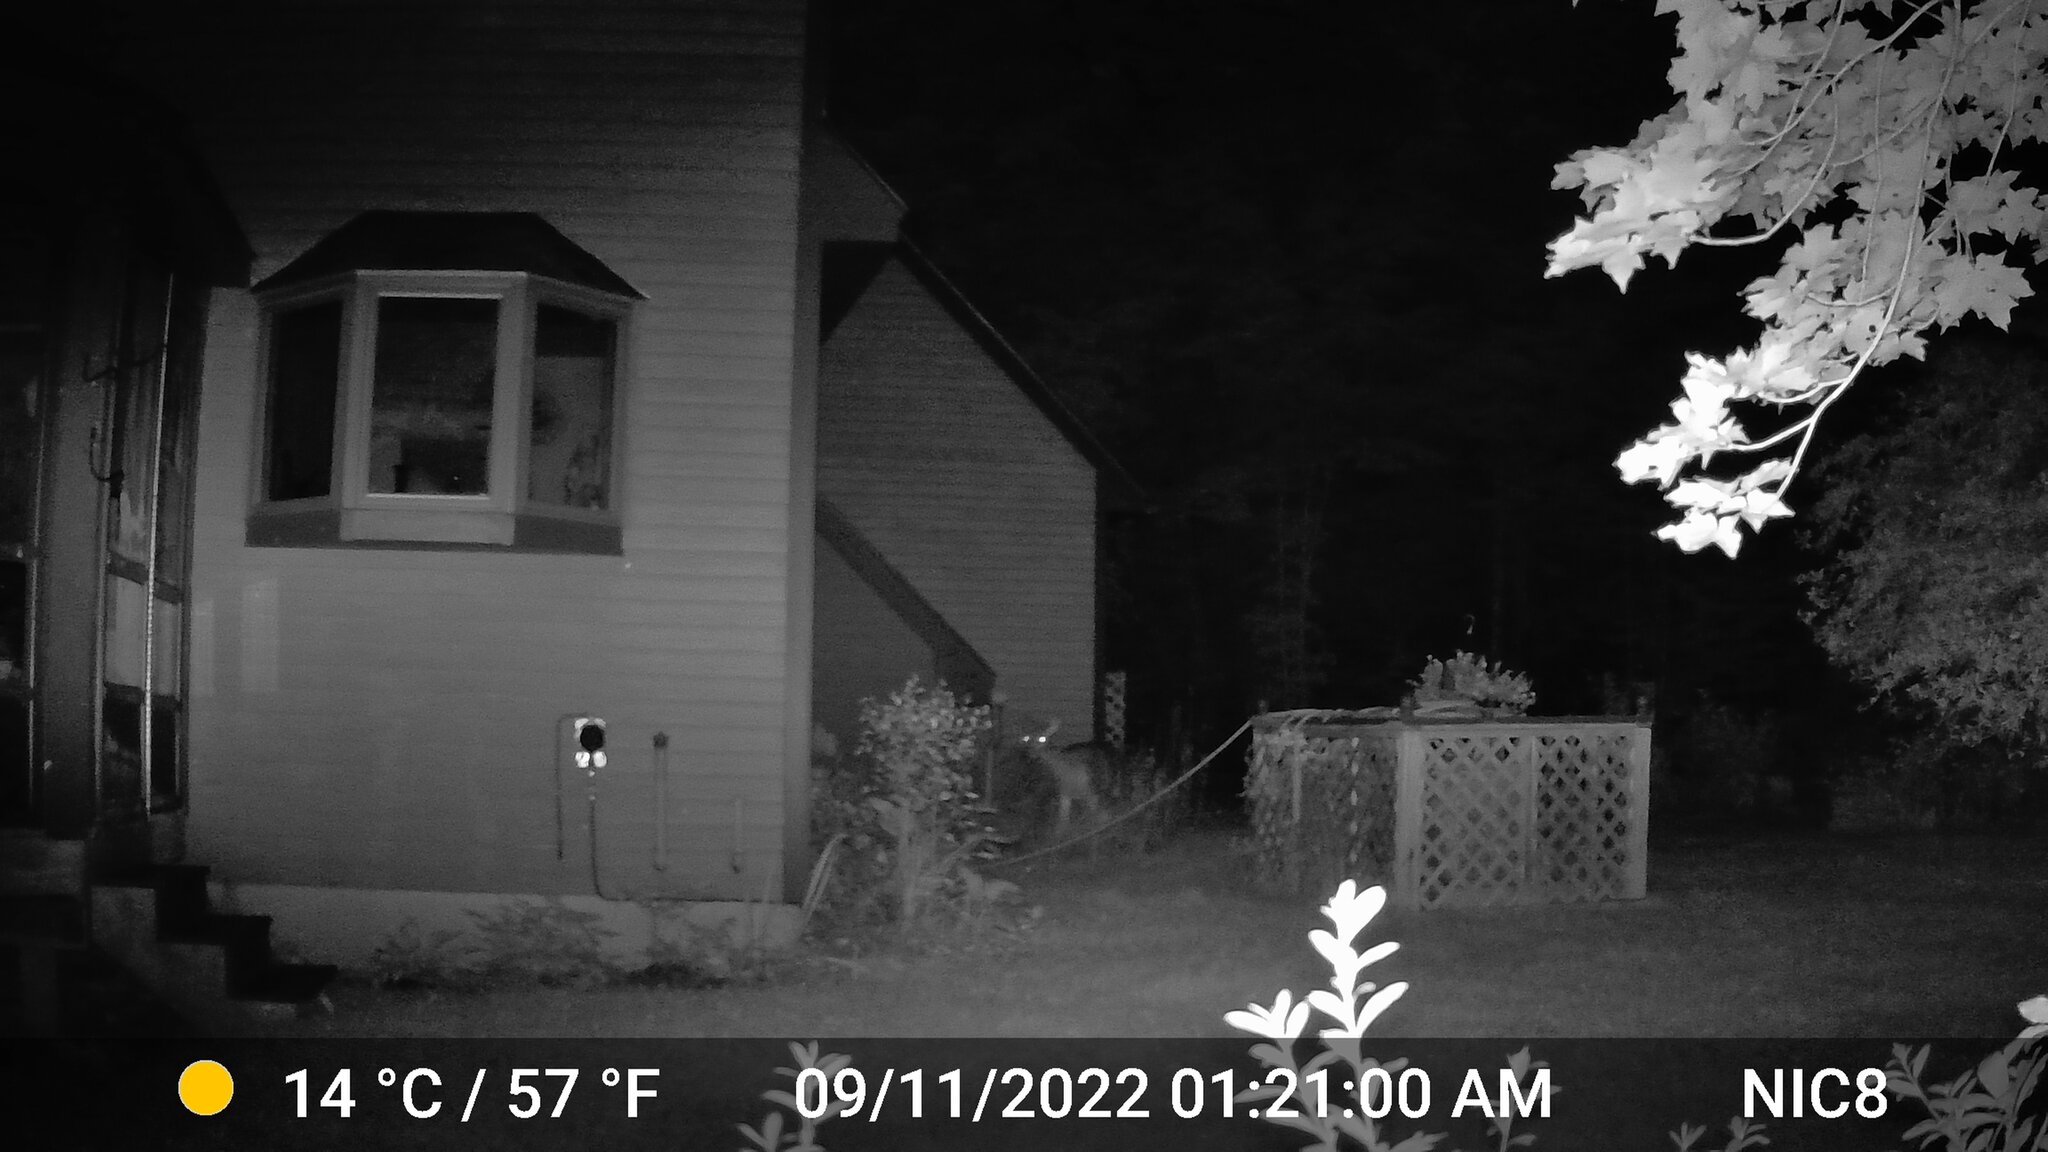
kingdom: Animalia
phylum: Chordata
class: Mammalia
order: Artiodactyla
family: Cervidae
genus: Odocoileus
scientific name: Odocoileus virginianus
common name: White-tailed deer
